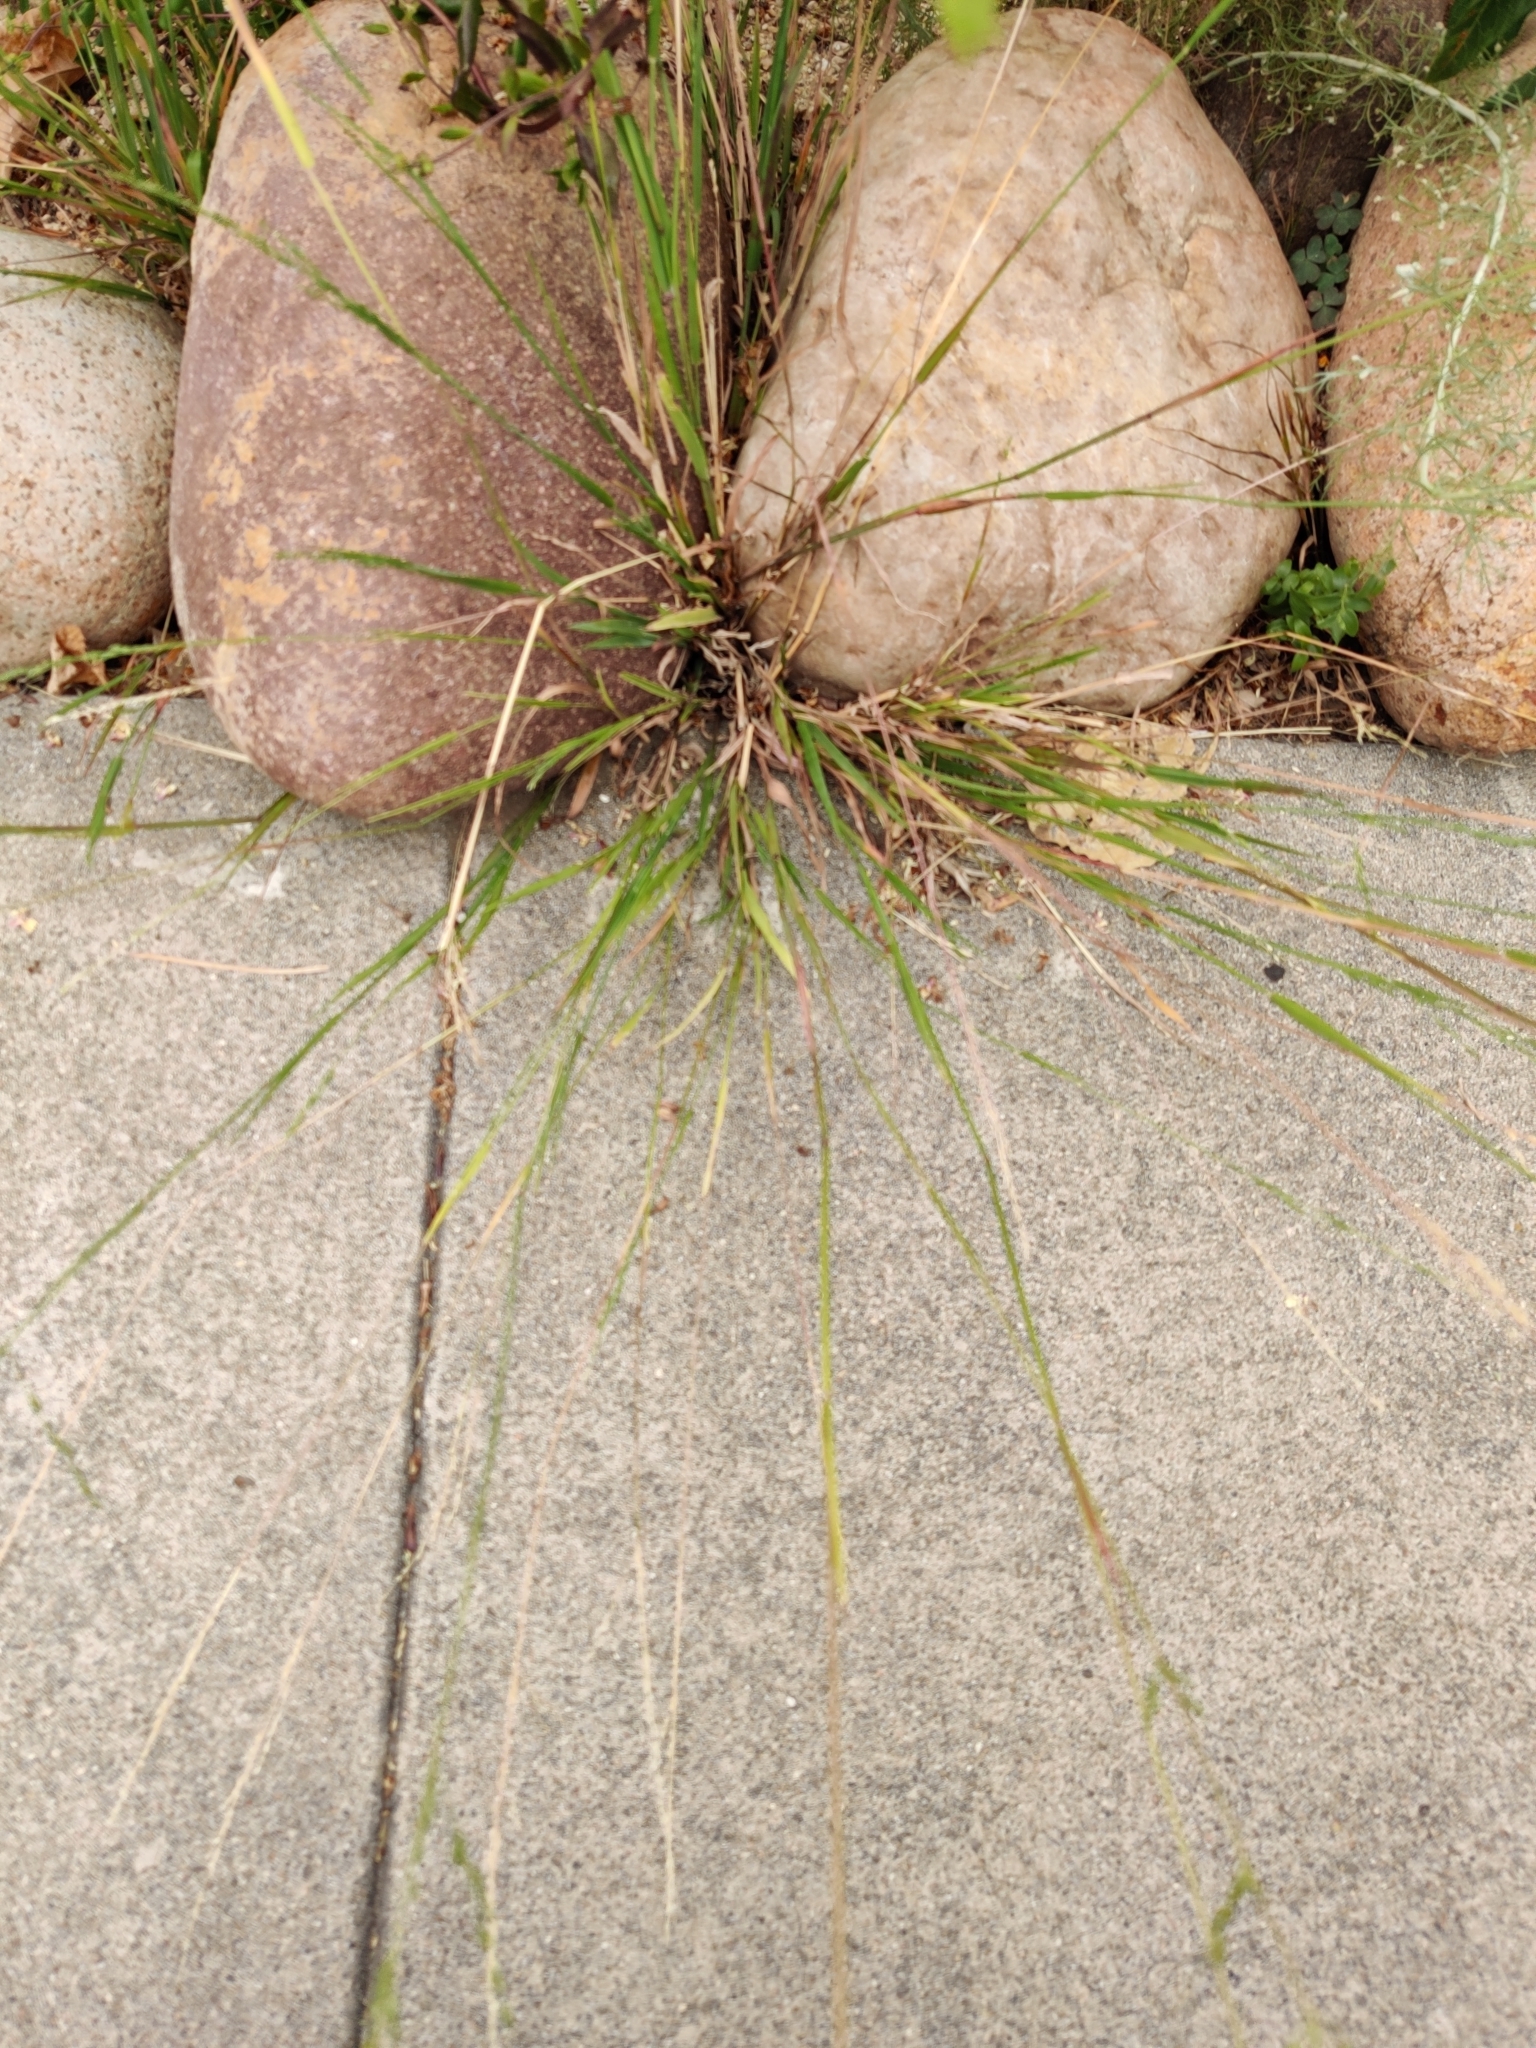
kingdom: Plantae
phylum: Tracheophyta
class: Liliopsida
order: Poales
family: Poaceae
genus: Ehrharta
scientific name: Ehrharta erecta
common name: Panic veldtgrass
